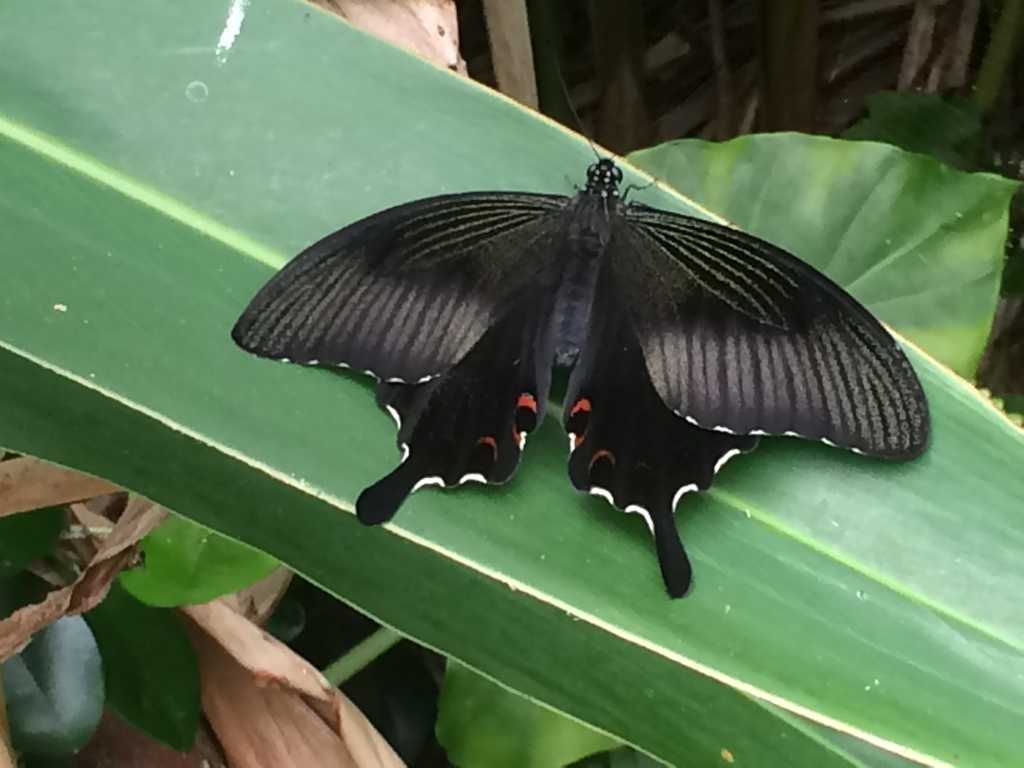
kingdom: Animalia
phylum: Arthropoda
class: Insecta
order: Lepidoptera
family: Papilionidae
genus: Papilio
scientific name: Papilio helenus
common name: Red helen
